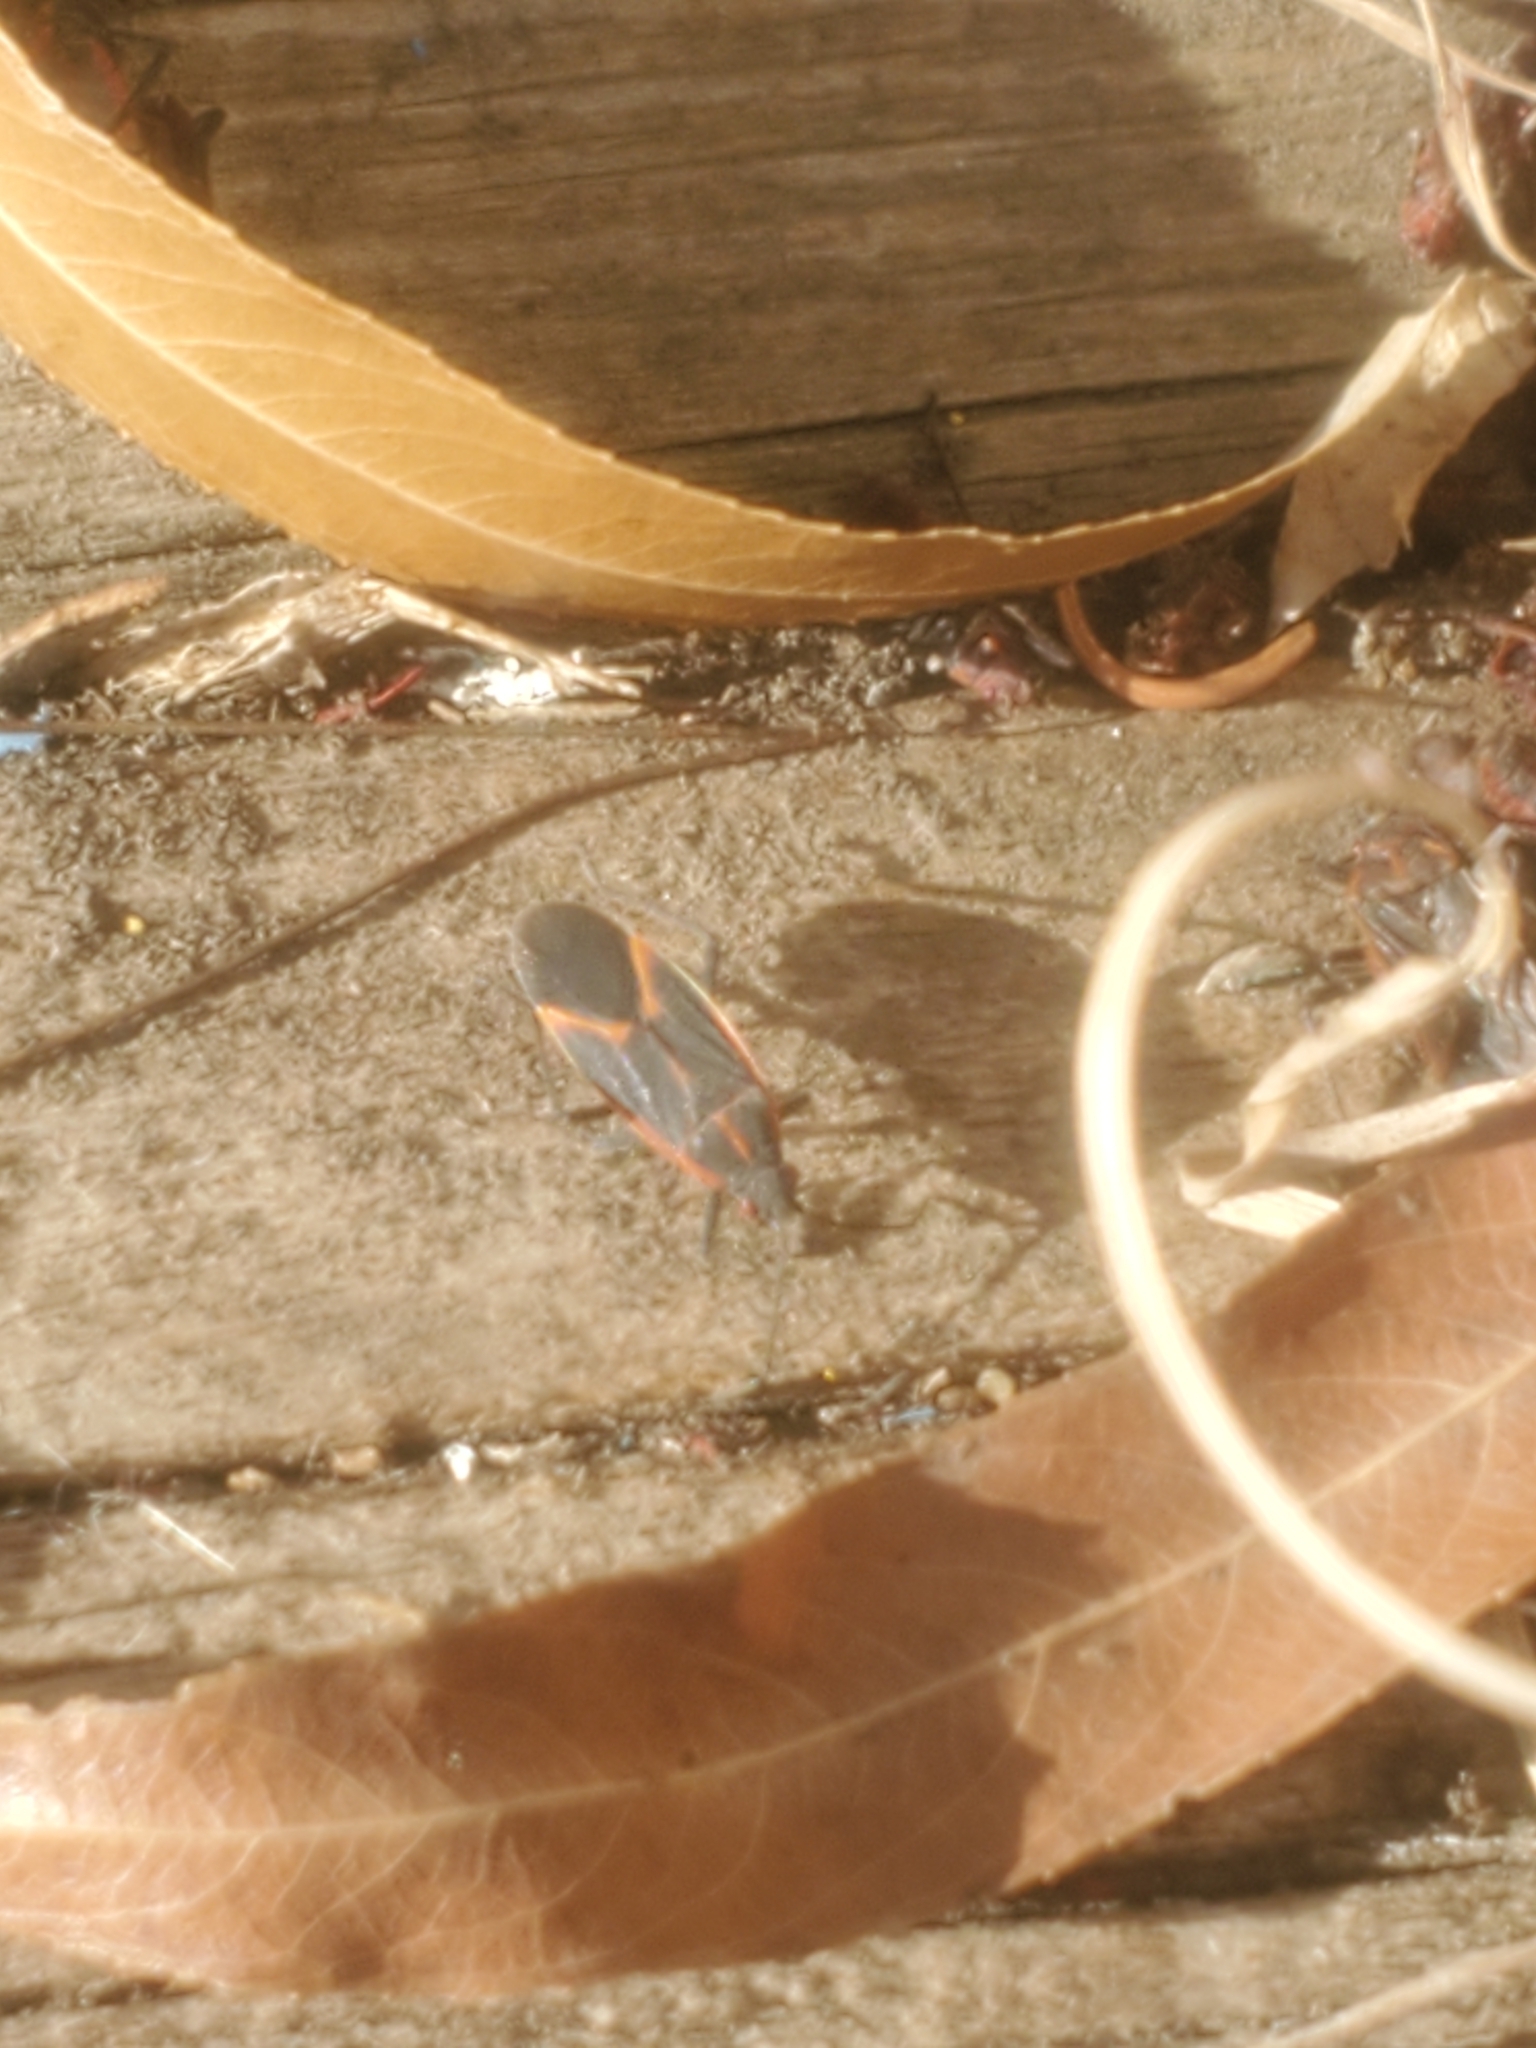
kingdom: Animalia
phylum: Arthropoda
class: Insecta
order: Hemiptera
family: Rhopalidae
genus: Boisea
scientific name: Boisea trivittata
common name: Boxelder bug
